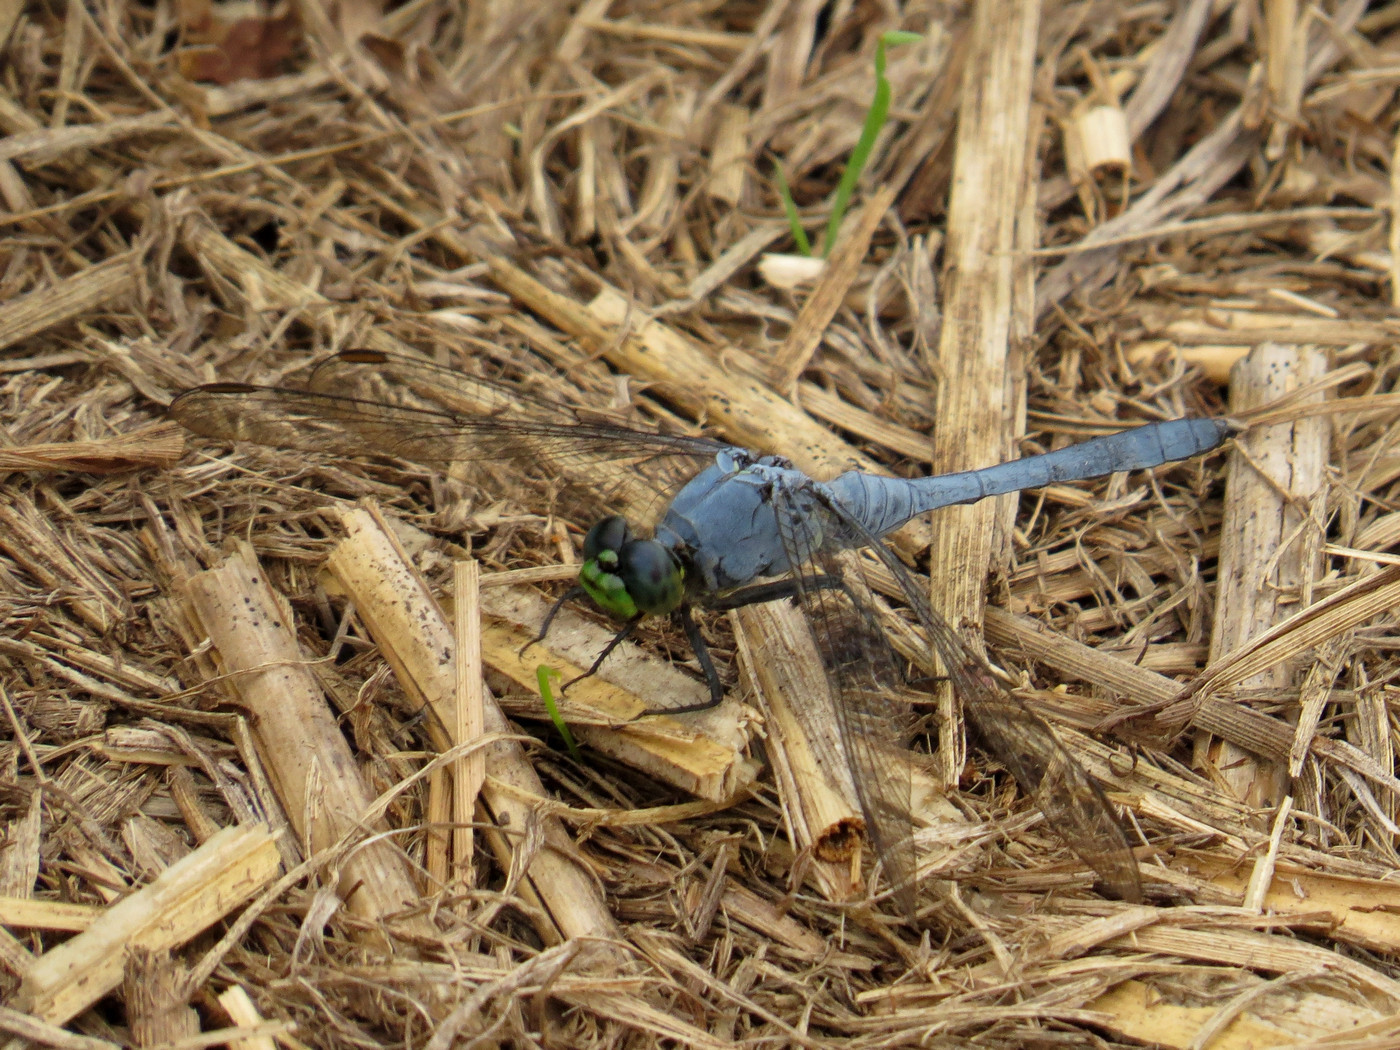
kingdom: Animalia
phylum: Arthropoda
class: Insecta
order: Odonata
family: Libellulidae
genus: Erythemis
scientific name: Erythemis simplicicollis
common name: Eastern pondhawk
